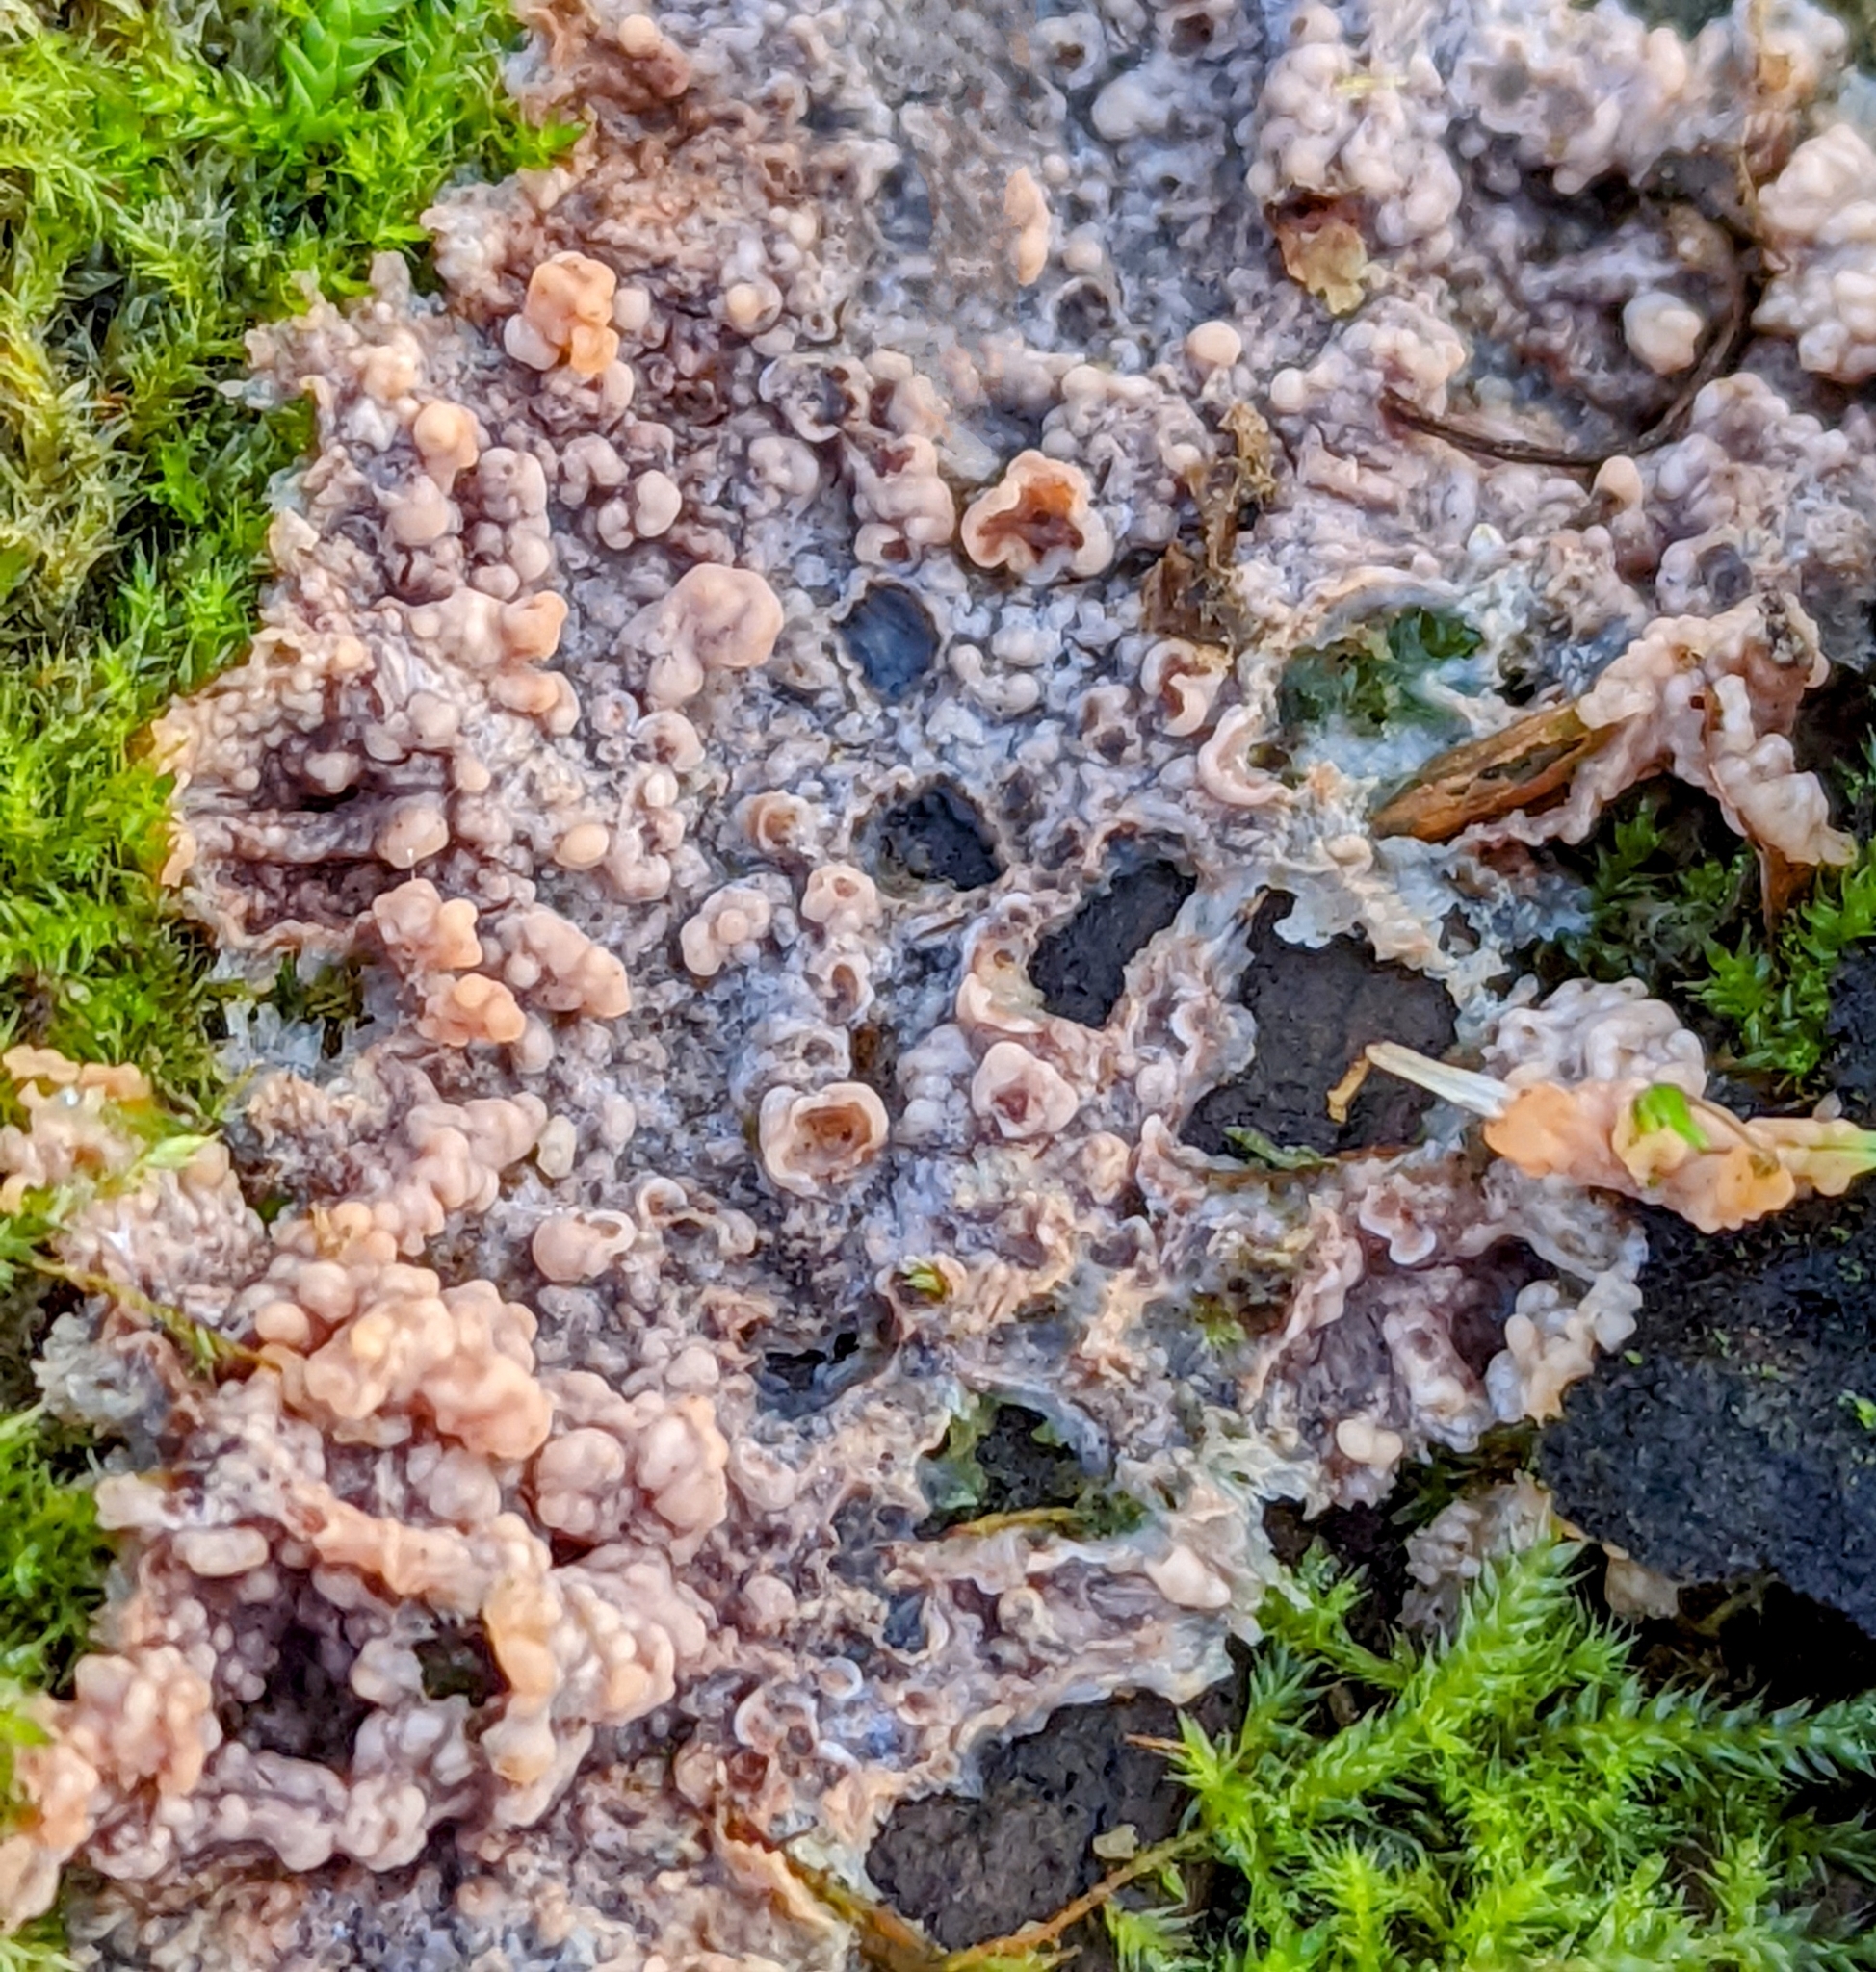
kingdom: Fungi
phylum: Basidiomycota
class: Agaricomycetes
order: Polyporales
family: Meruliaceae
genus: Phlebia
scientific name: Phlebia radiata
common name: Wrinkled crust
